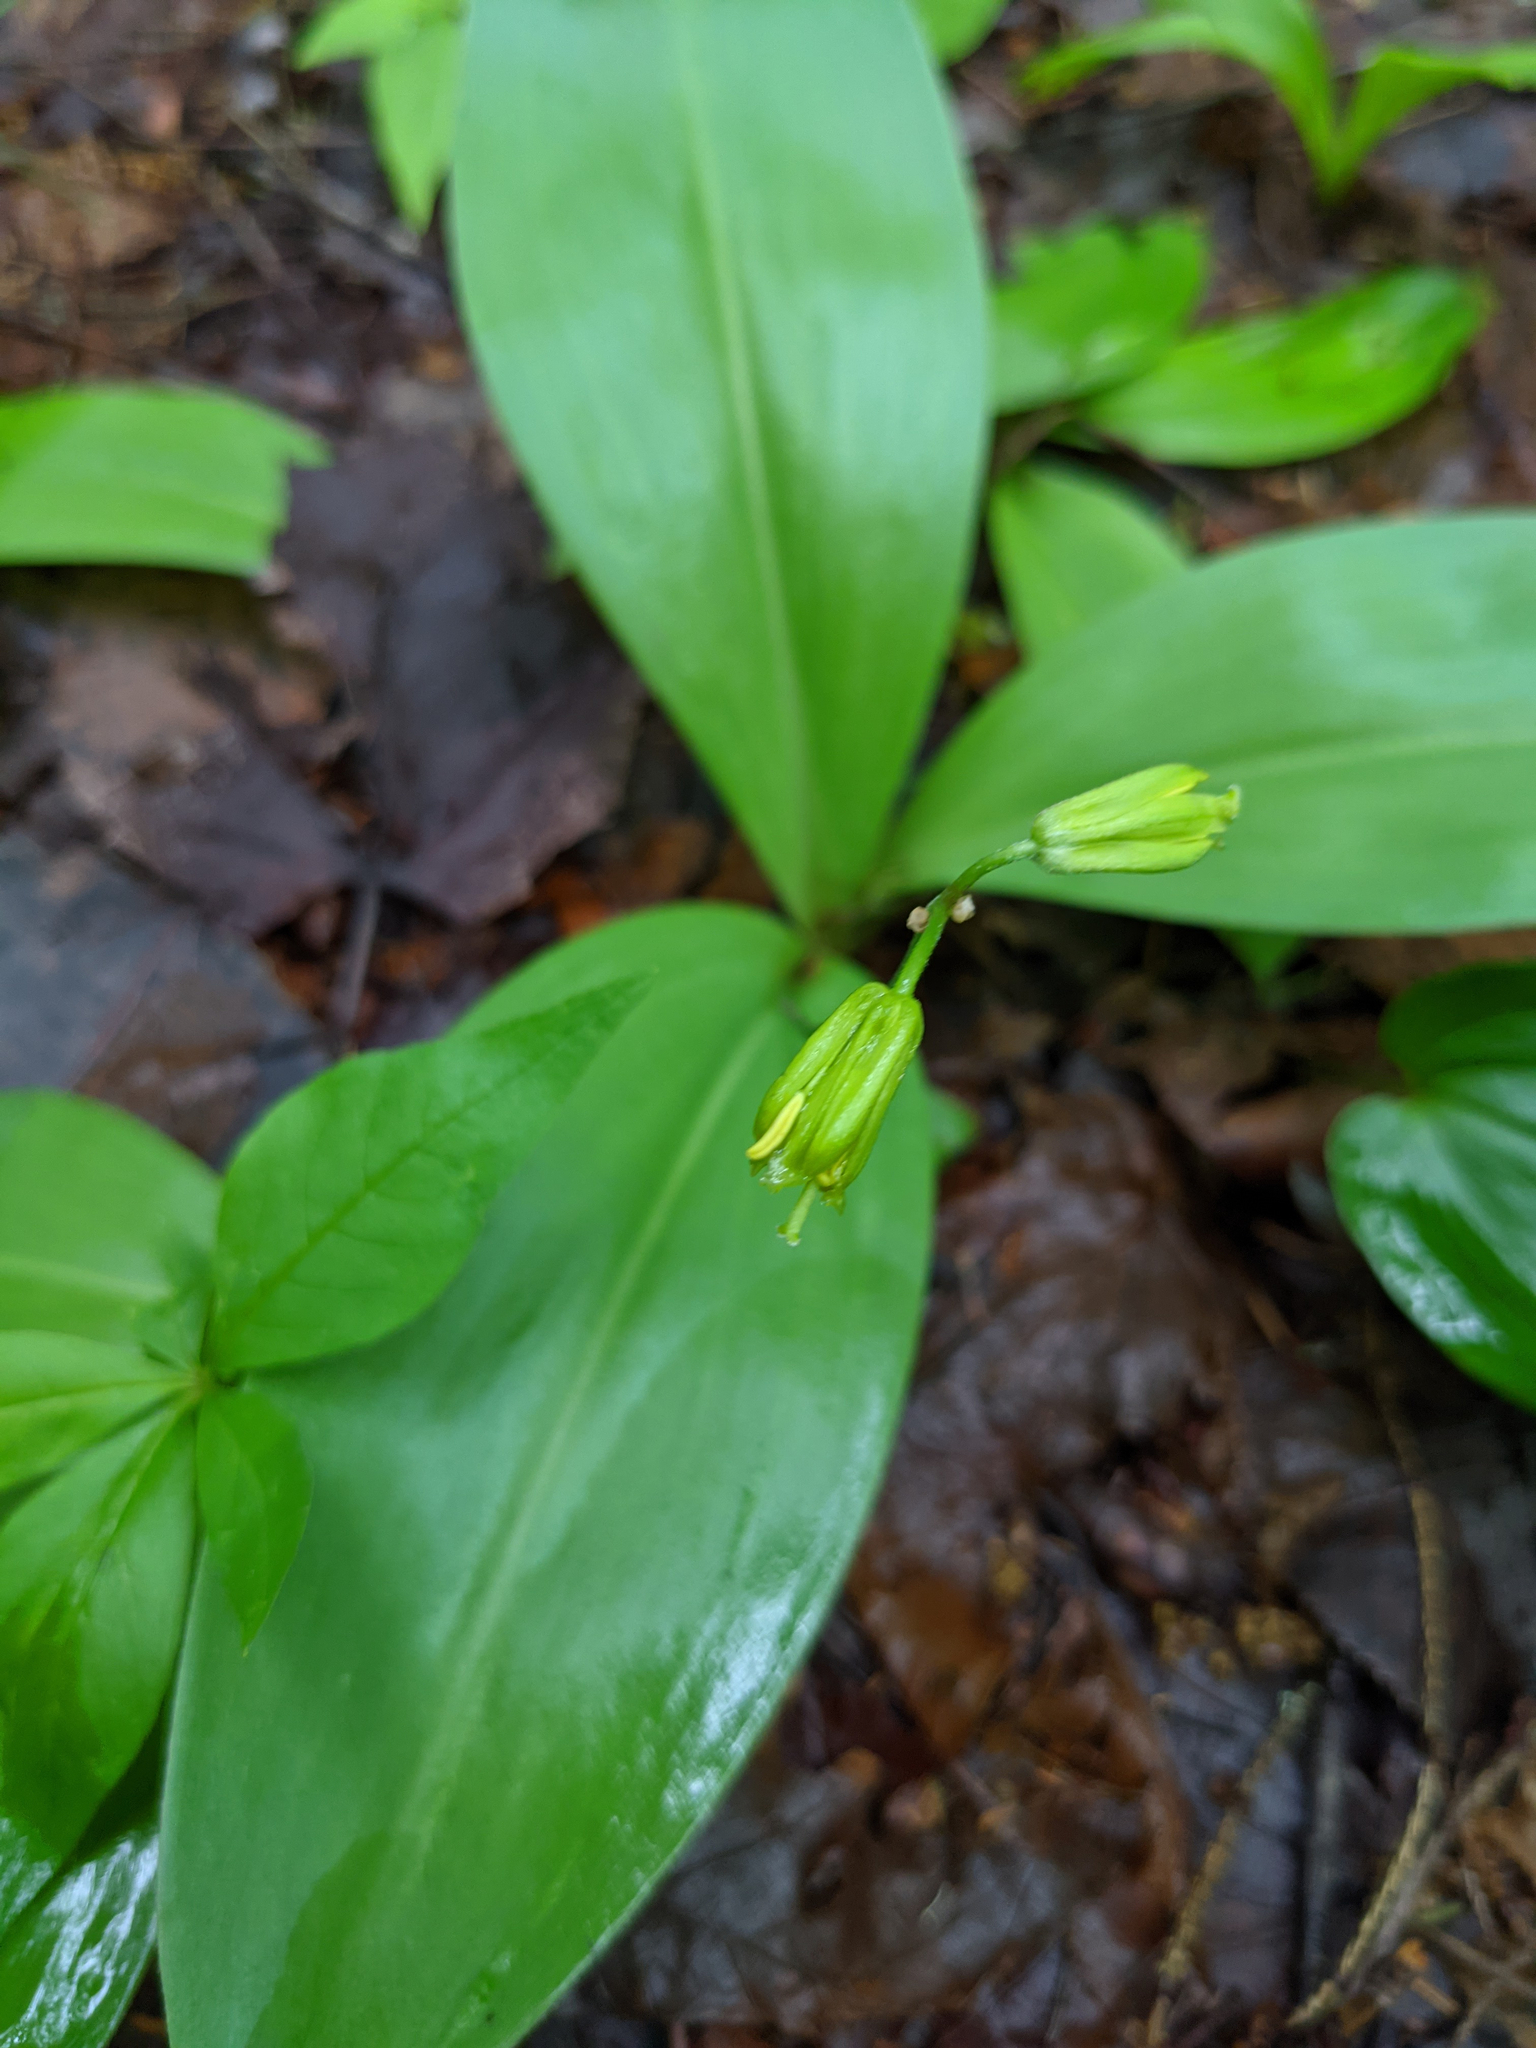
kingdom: Plantae
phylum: Tracheophyta
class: Liliopsida
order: Liliales
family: Liliaceae
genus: Clintonia
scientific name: Clintonia borealis
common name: Yellow clintonia
